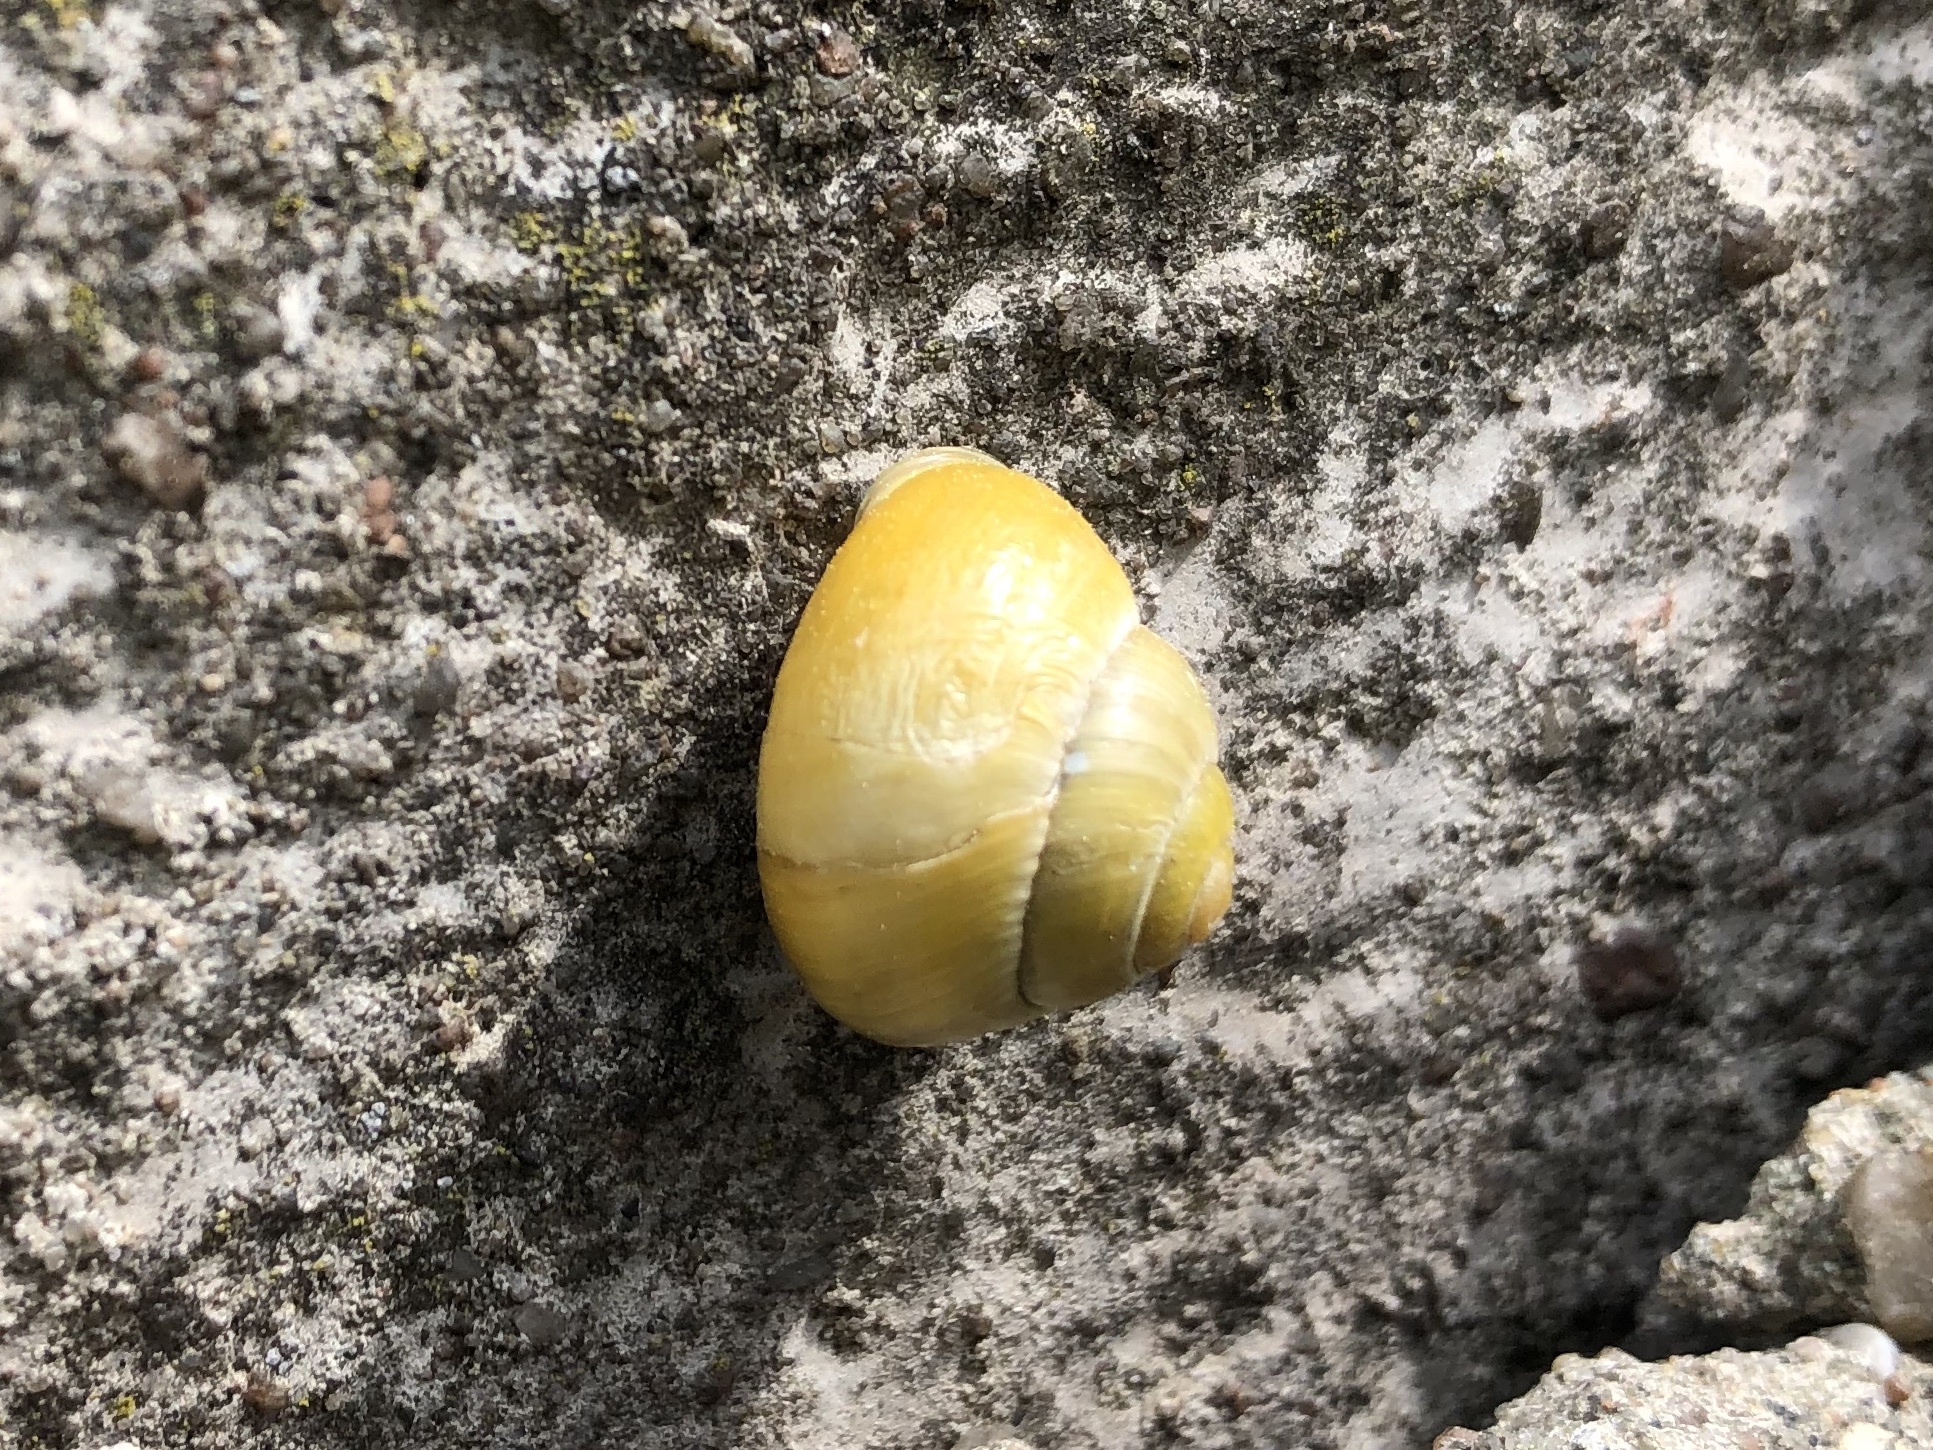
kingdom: Animalia
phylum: Mollusca
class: Gastropoda
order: Stylommatophora
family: Helicidae
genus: Cepaea
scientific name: Cepaea hortensis
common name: White-lip gardensnail
